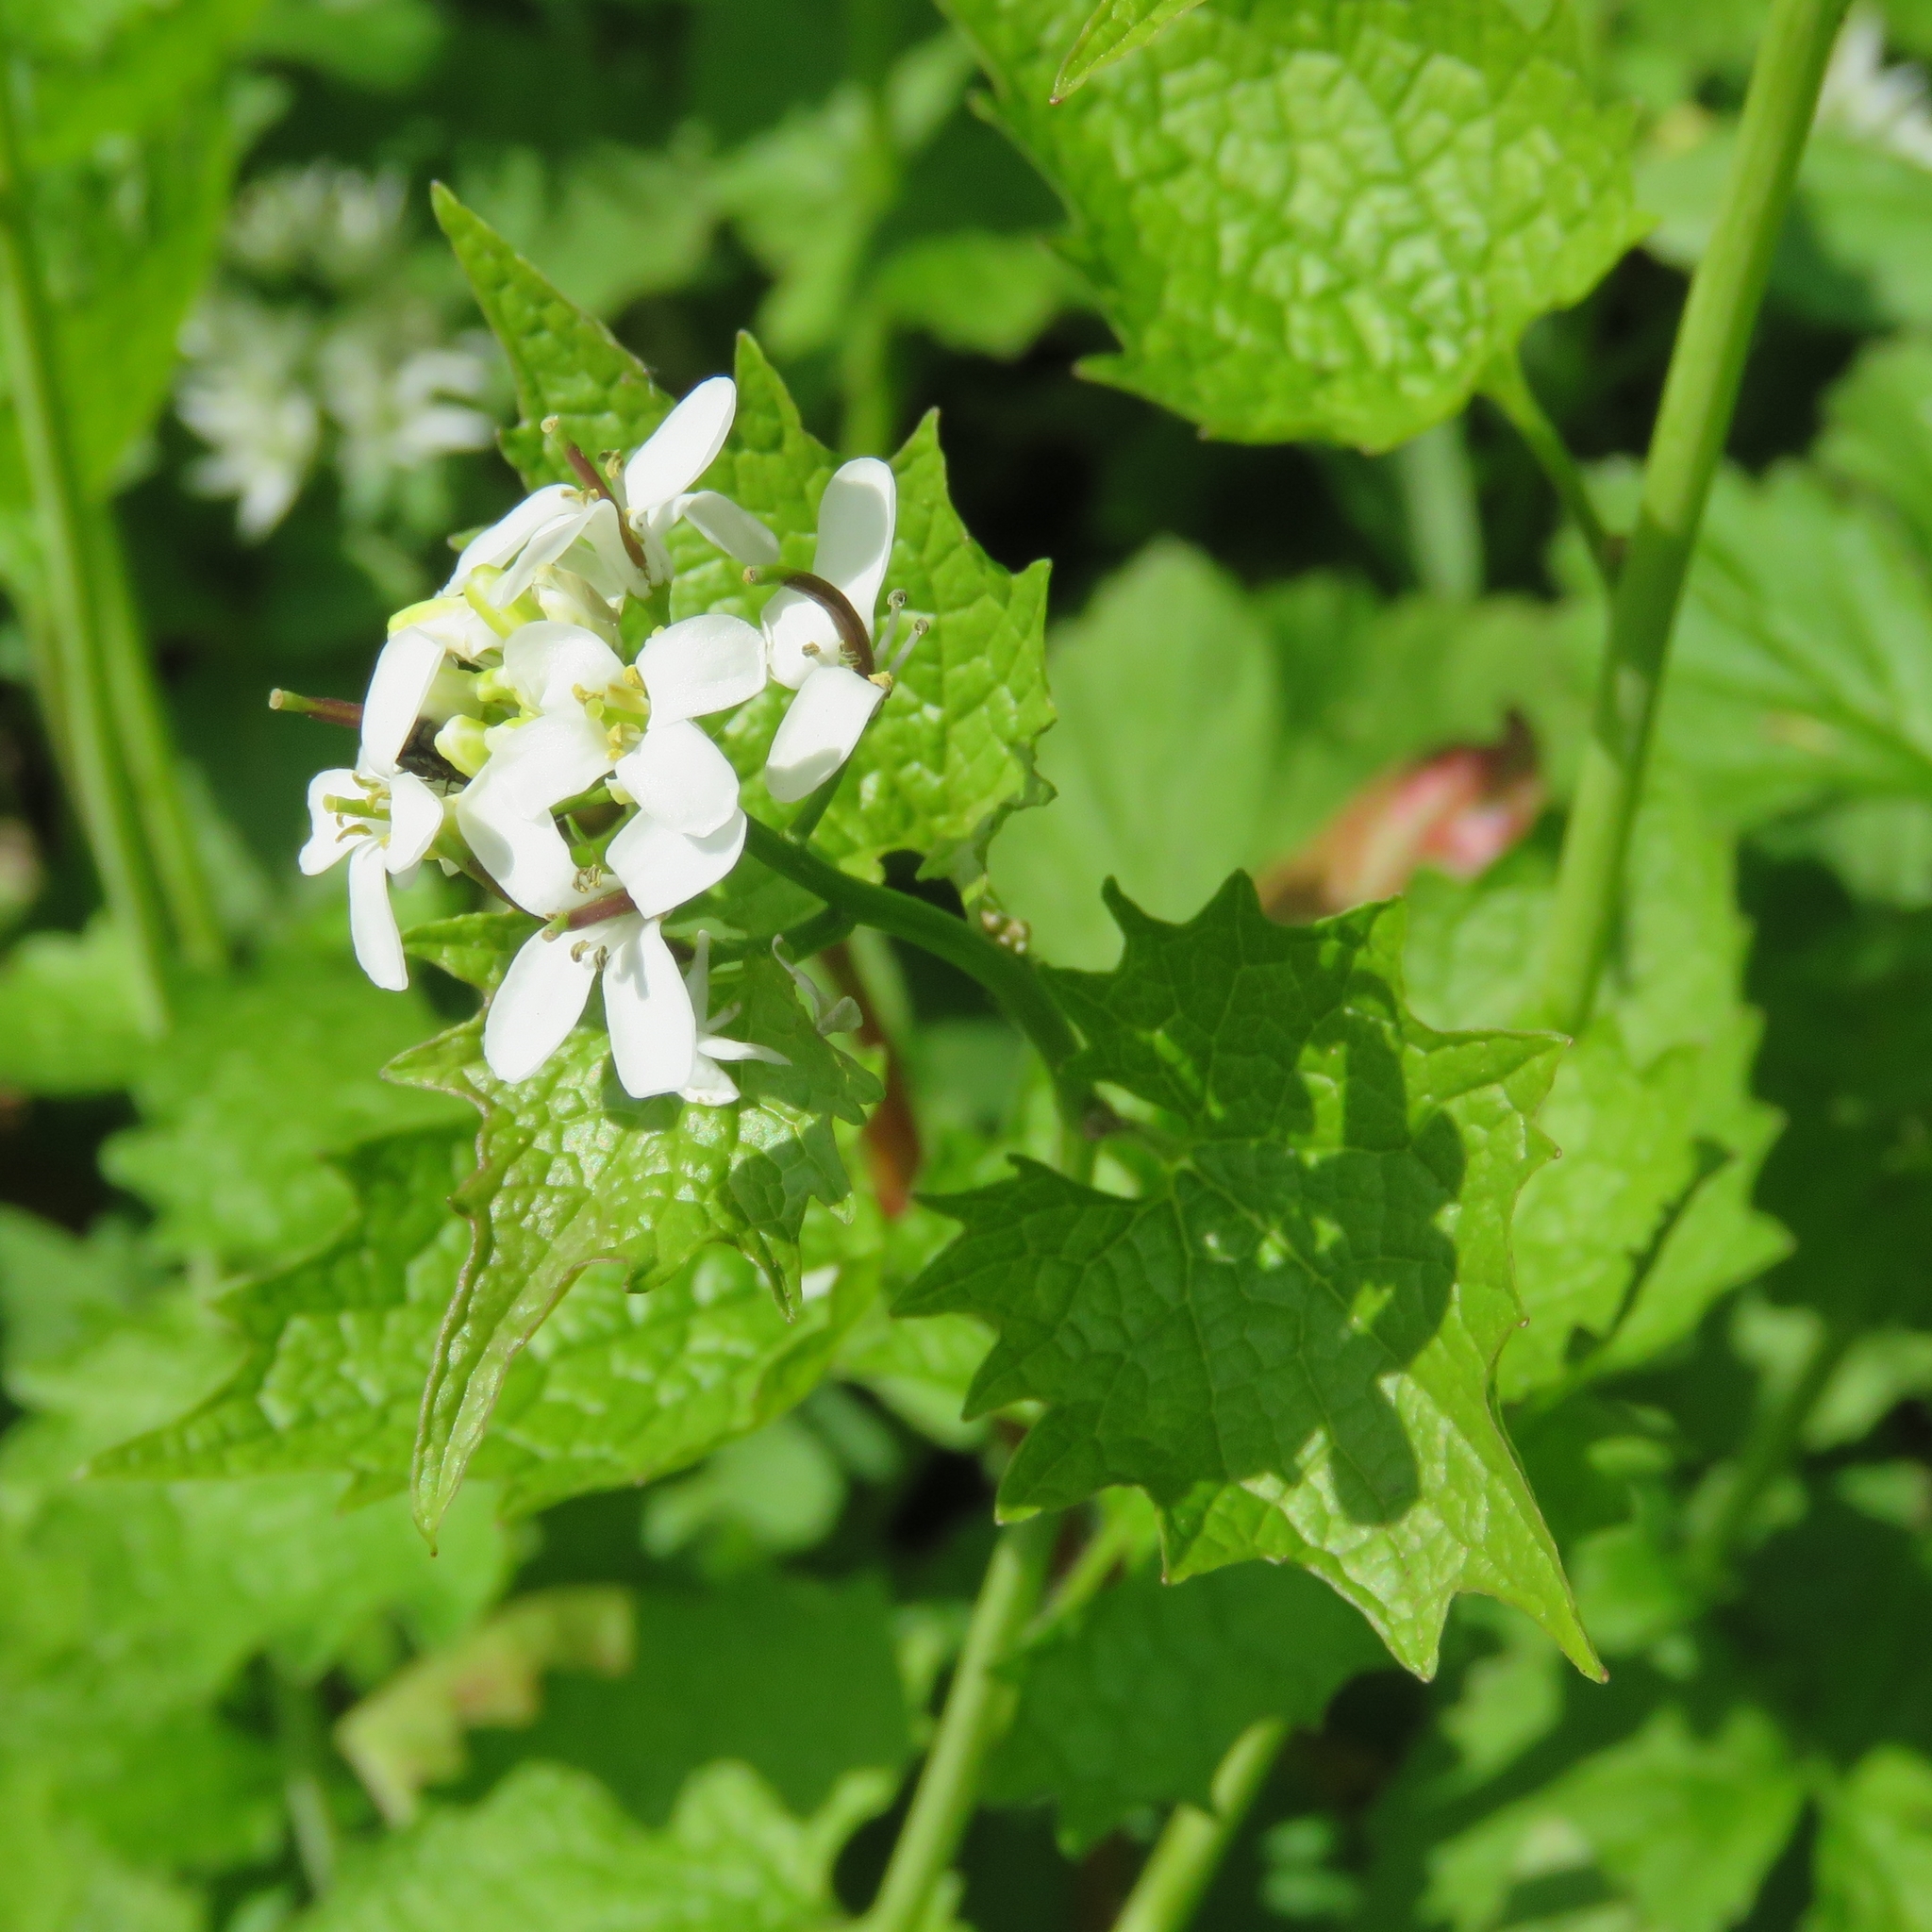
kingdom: Plantae
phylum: Tracheophyta
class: Magnoliopsida
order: Brassicales
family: Brassicaceae
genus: Alliaria
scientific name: Alliaria petiolata
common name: Garlic mustard
